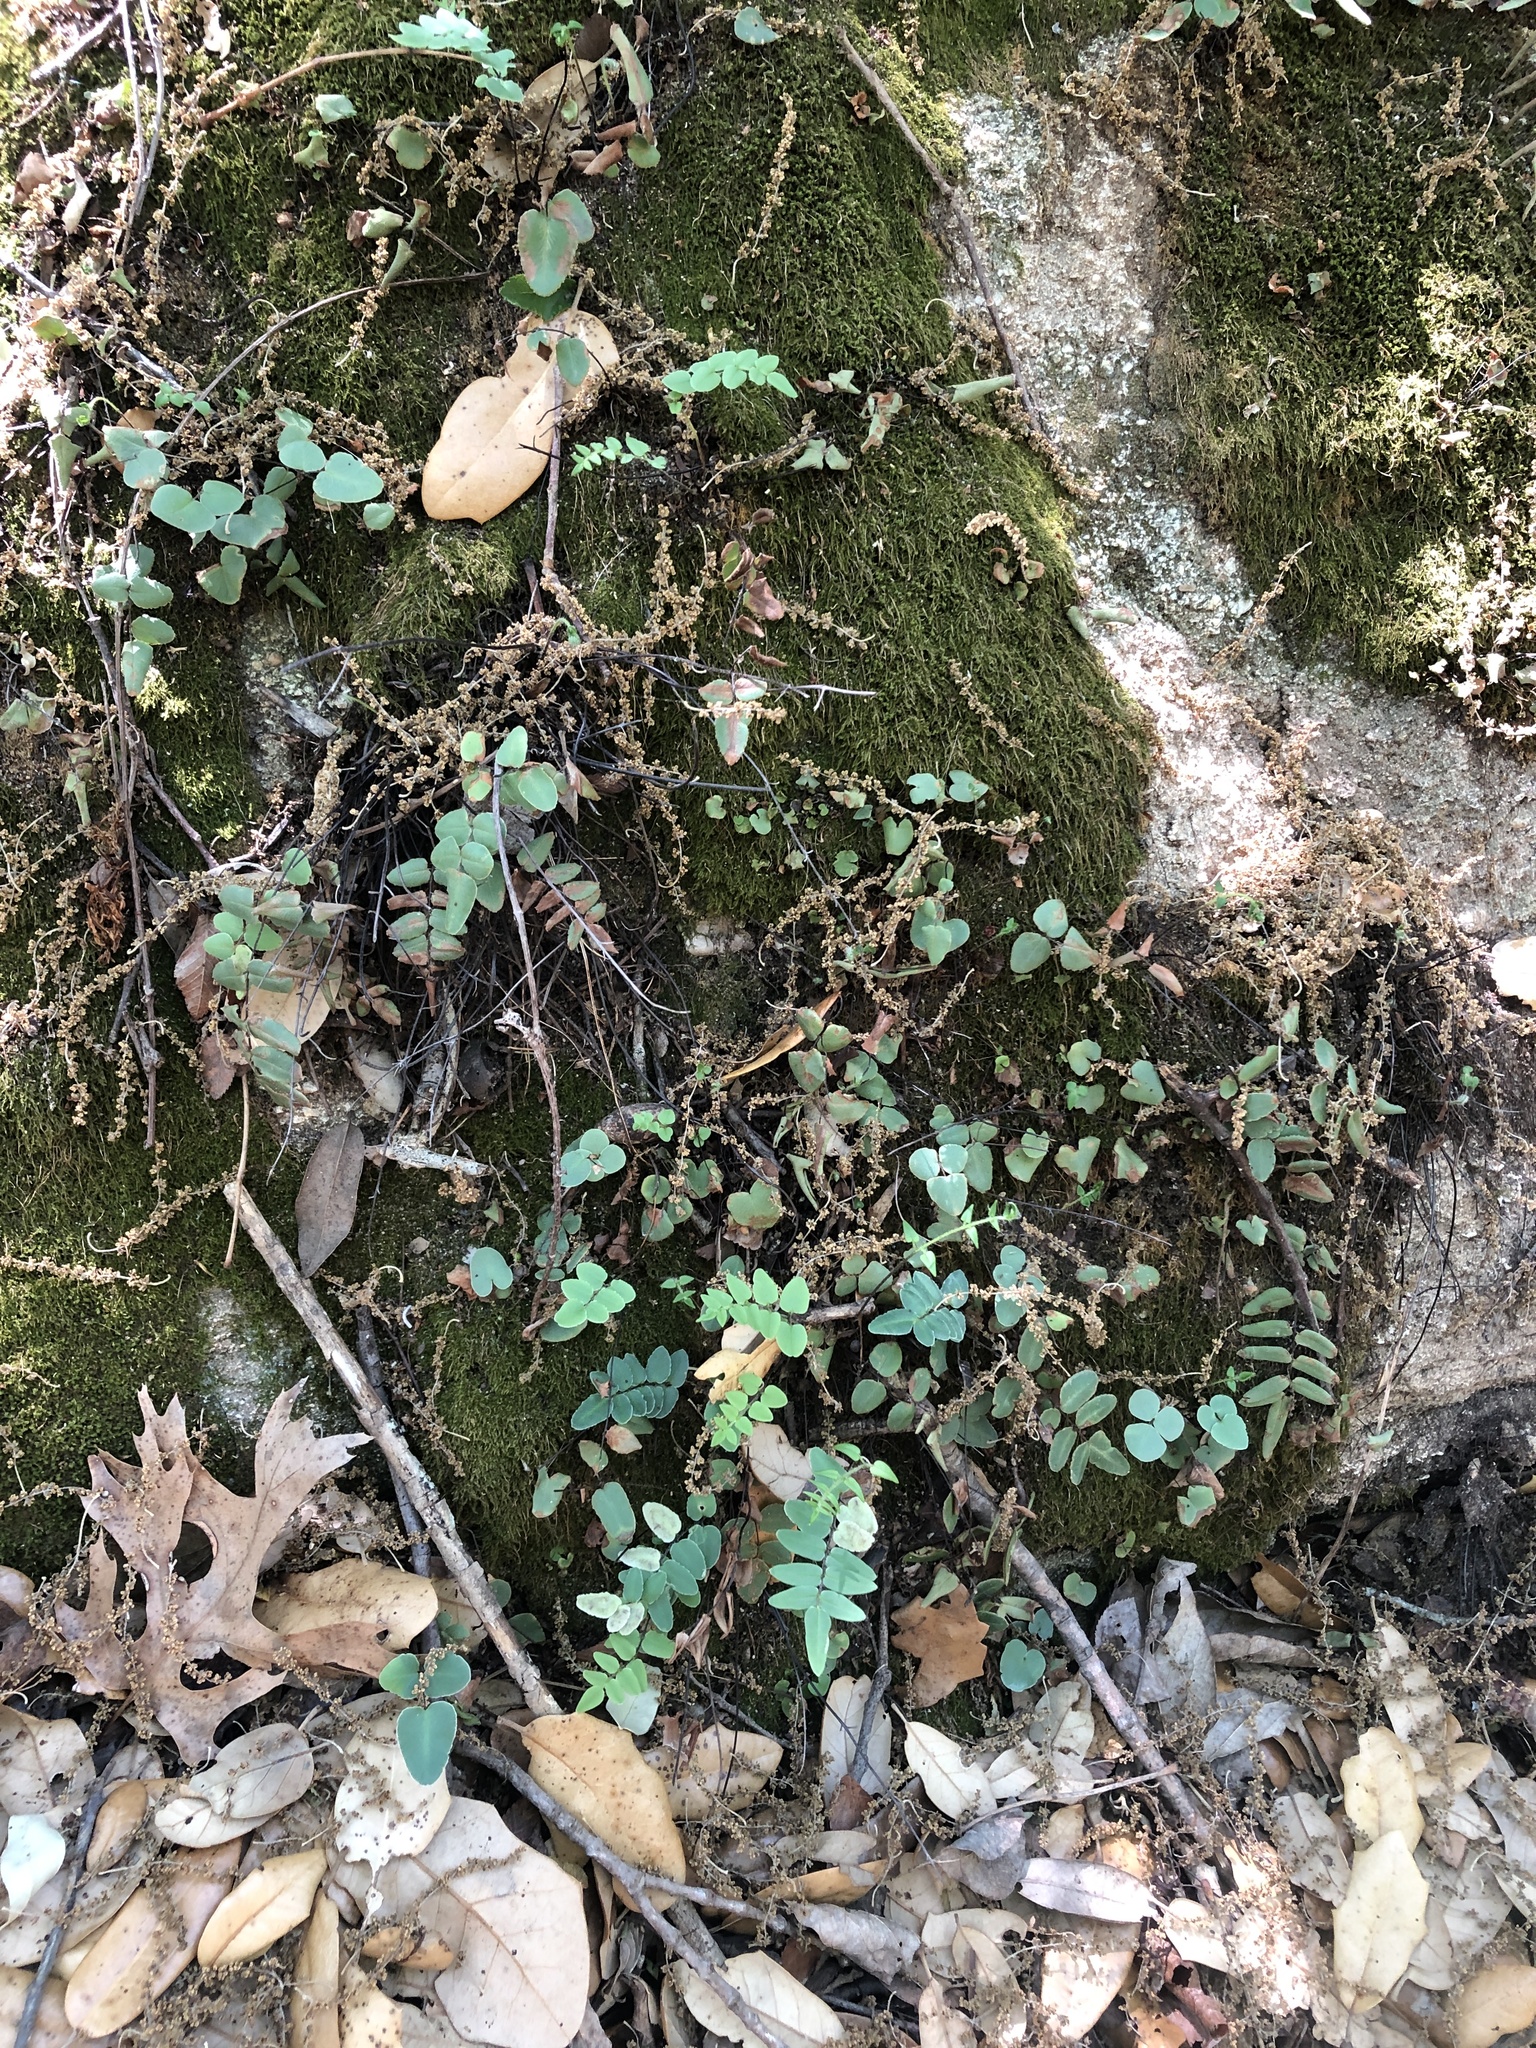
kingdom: Plantae
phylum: Tracheophyta
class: Polypodiopsida
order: Polypodiales
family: Pteridaceae
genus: Pellaea
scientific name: Pellaea atropurpurea
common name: Hairy cliffbrake
